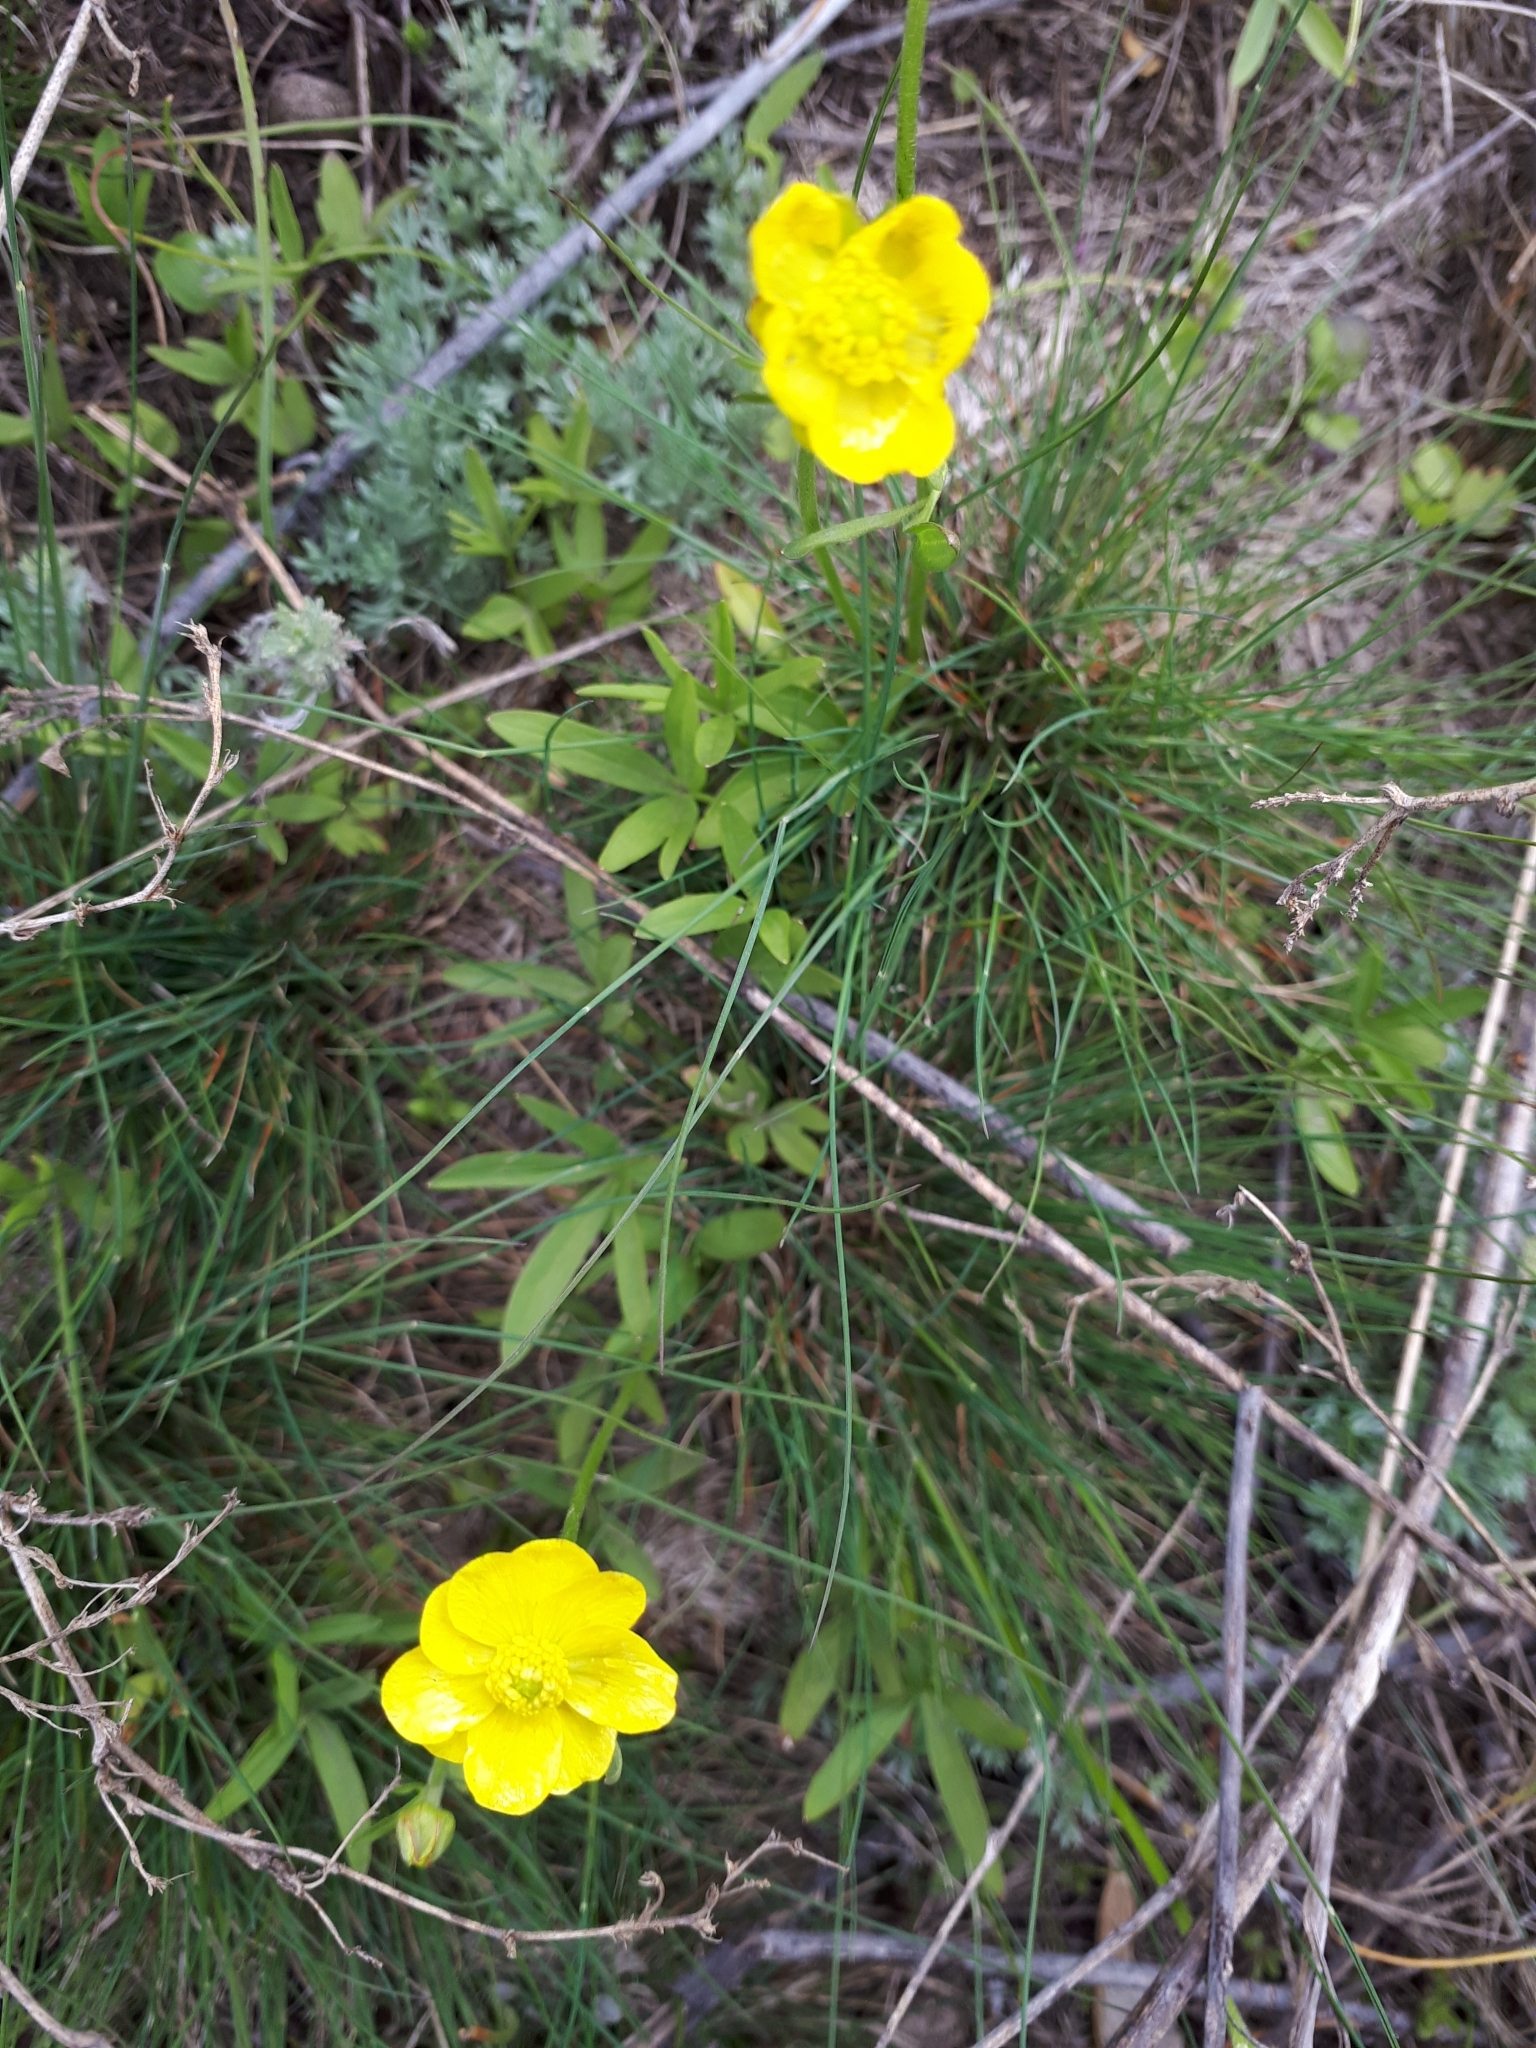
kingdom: Plantae
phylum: Tracheophyta
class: Magnoliopsida
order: Ranunculales
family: Ranunculaceae
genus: Ranunculus
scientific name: Ranunculus pedatus
